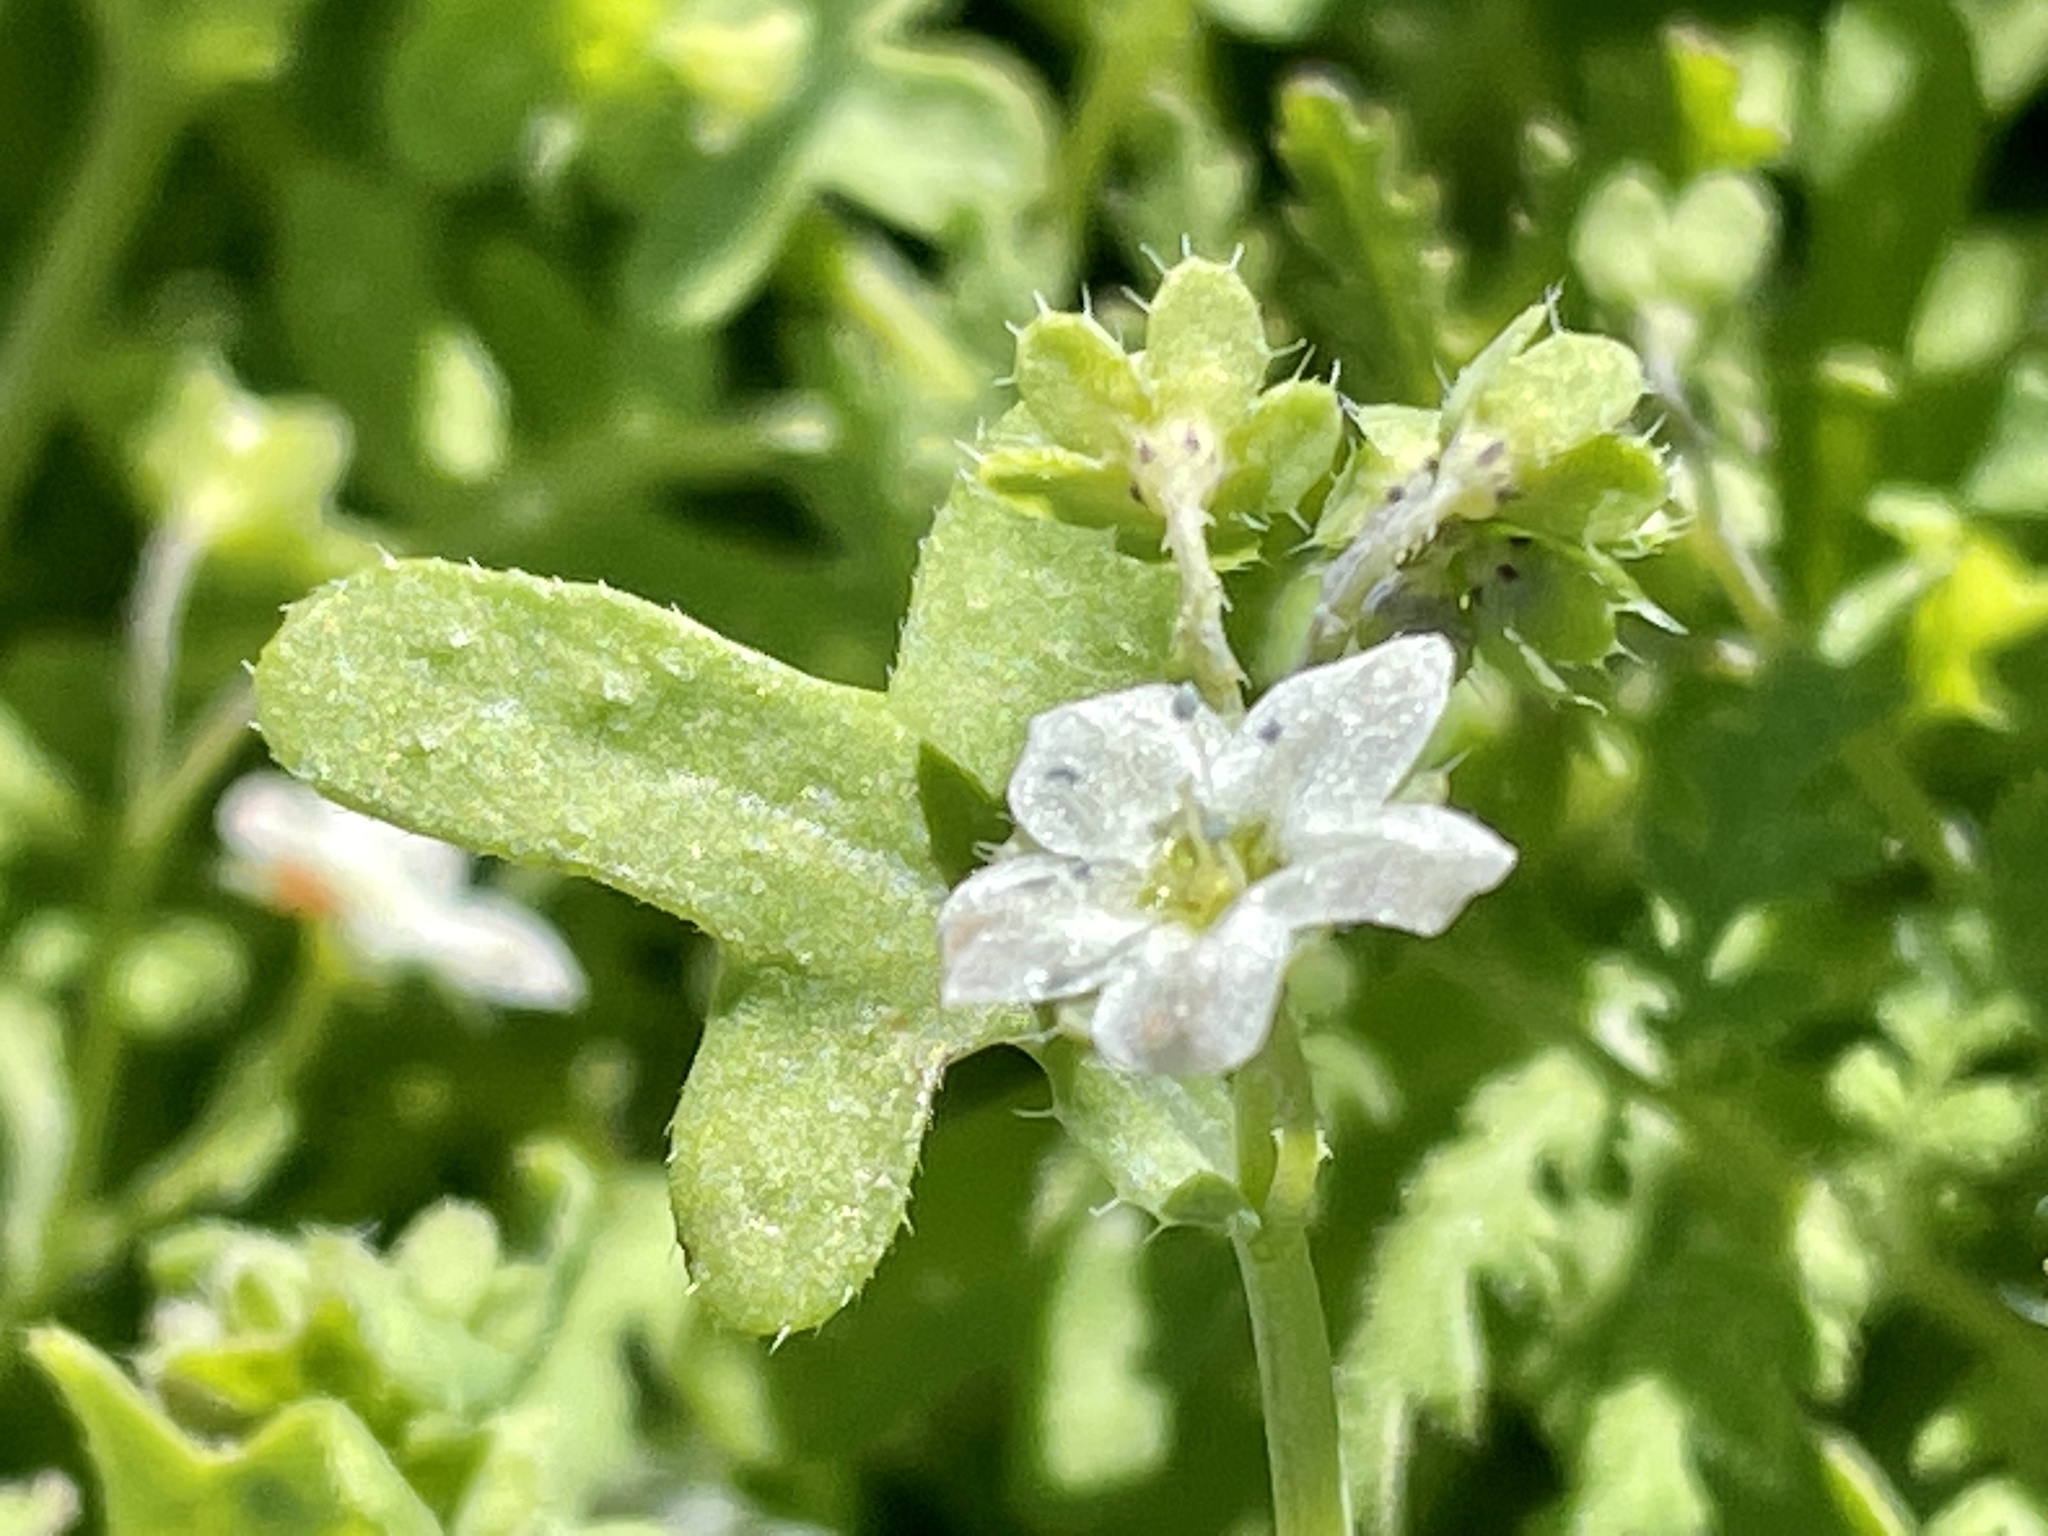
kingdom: Plantae
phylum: Tracheophyta
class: Magnoliopsida
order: Boraginales
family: Hydrophyllaceae
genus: Pholistoma
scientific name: Pholistoma membranaceum
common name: White fiesta-flower
